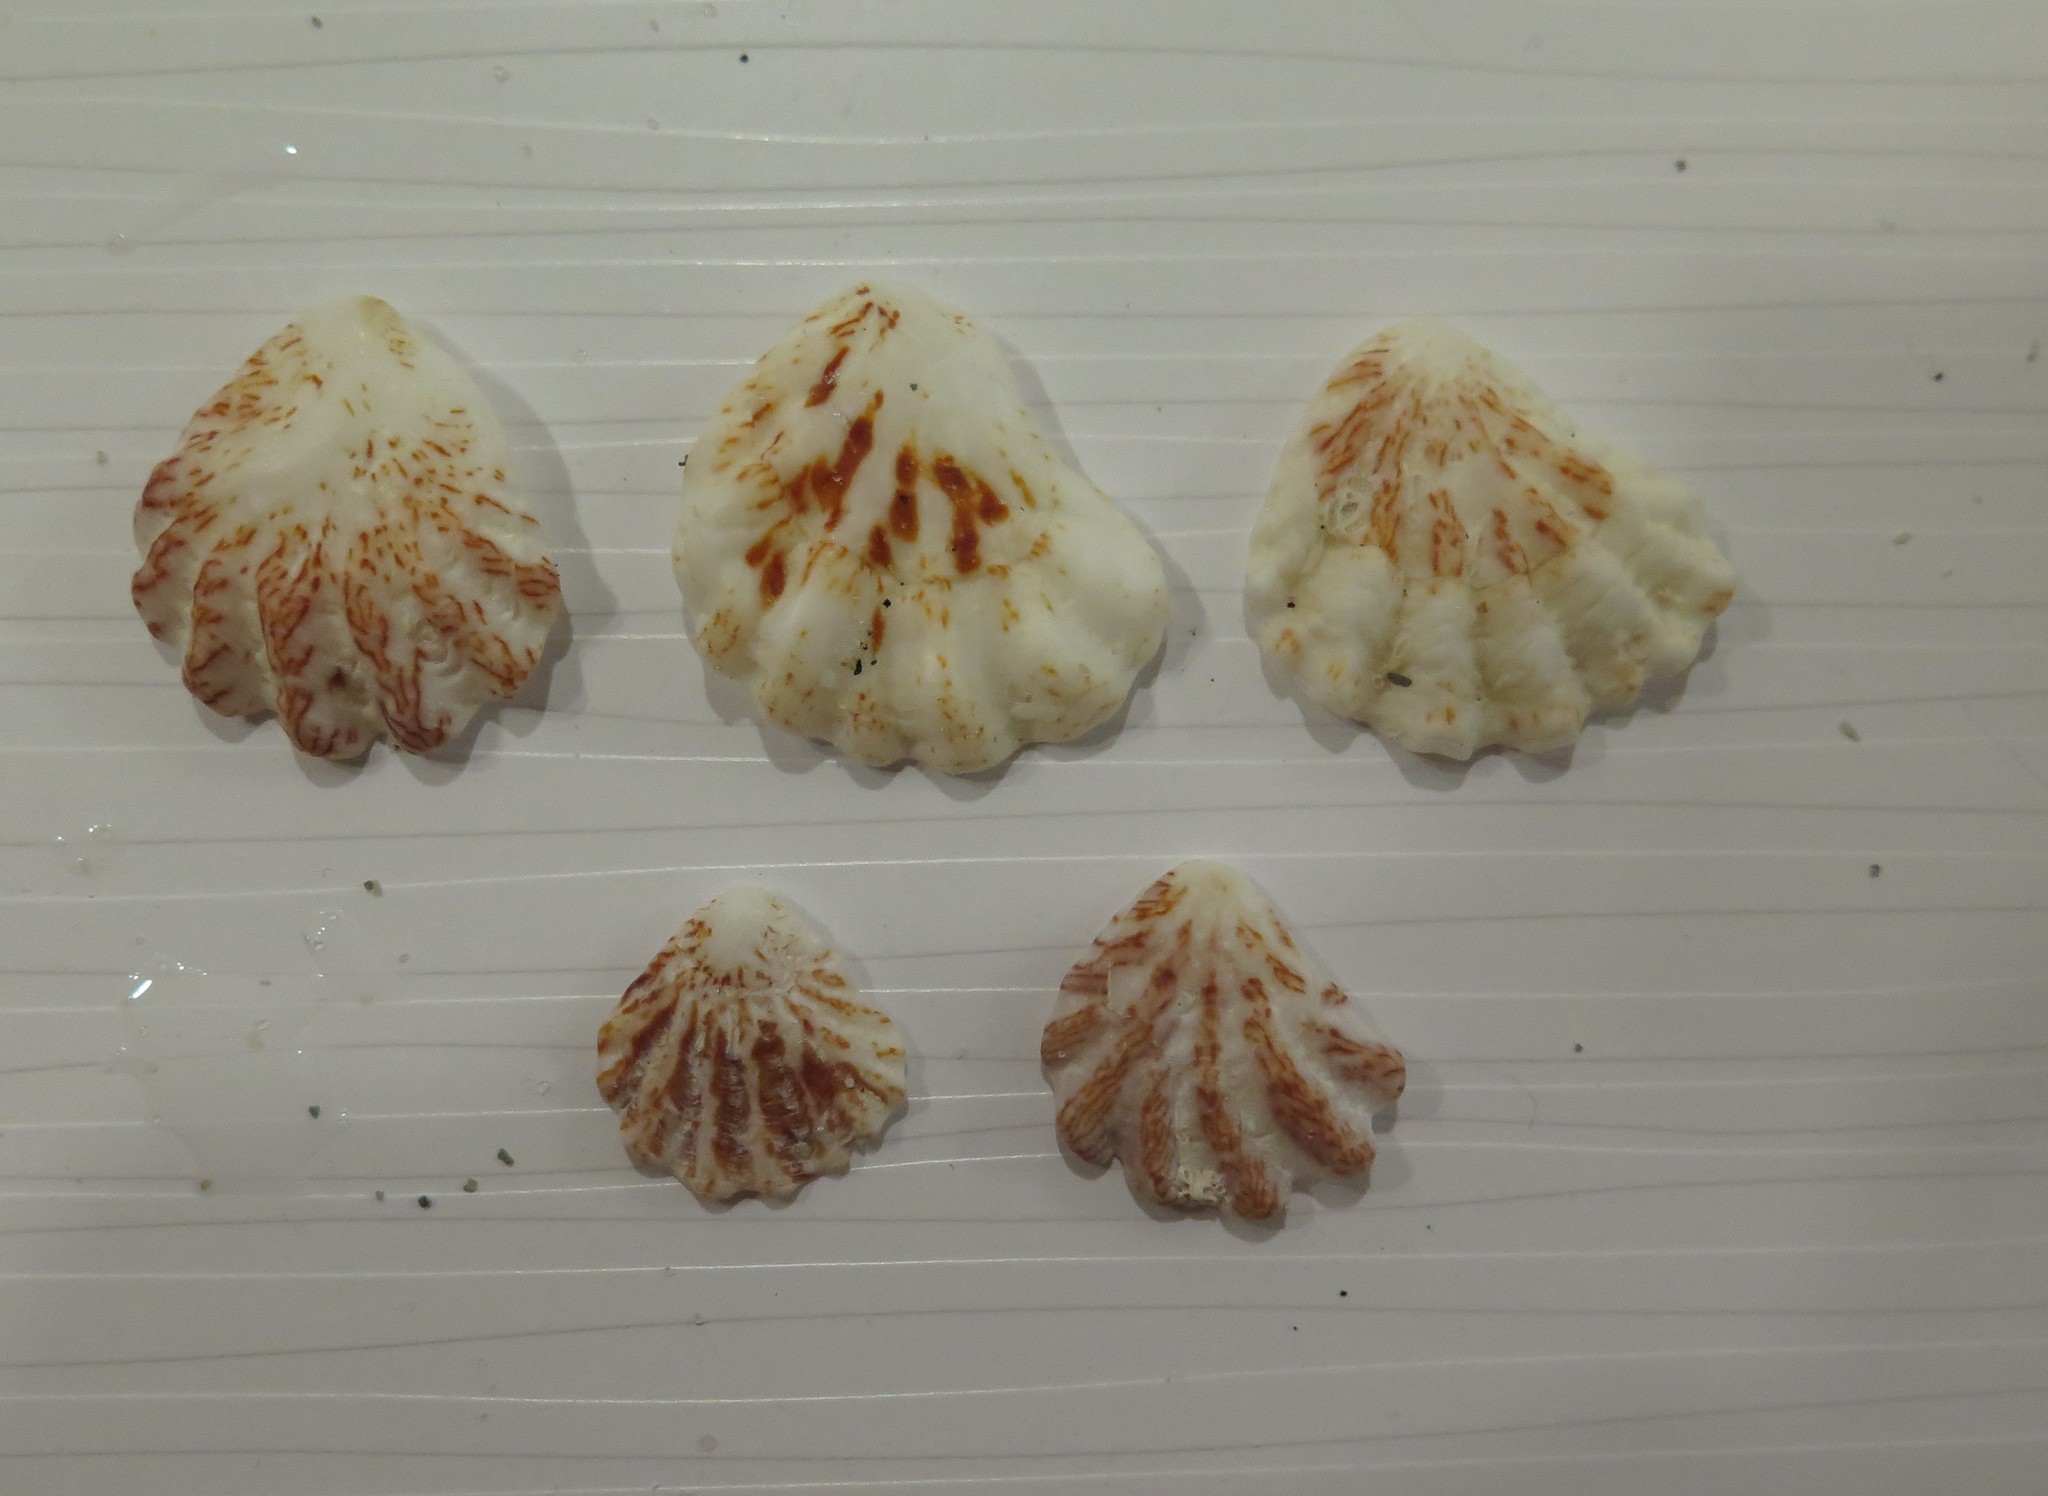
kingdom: Animalia
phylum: Mollusca
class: Bivalvia
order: Pectinida
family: Plicatulidae
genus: Plicatula
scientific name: Plicatula gibbosa
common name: Atlantic kitten's paw
